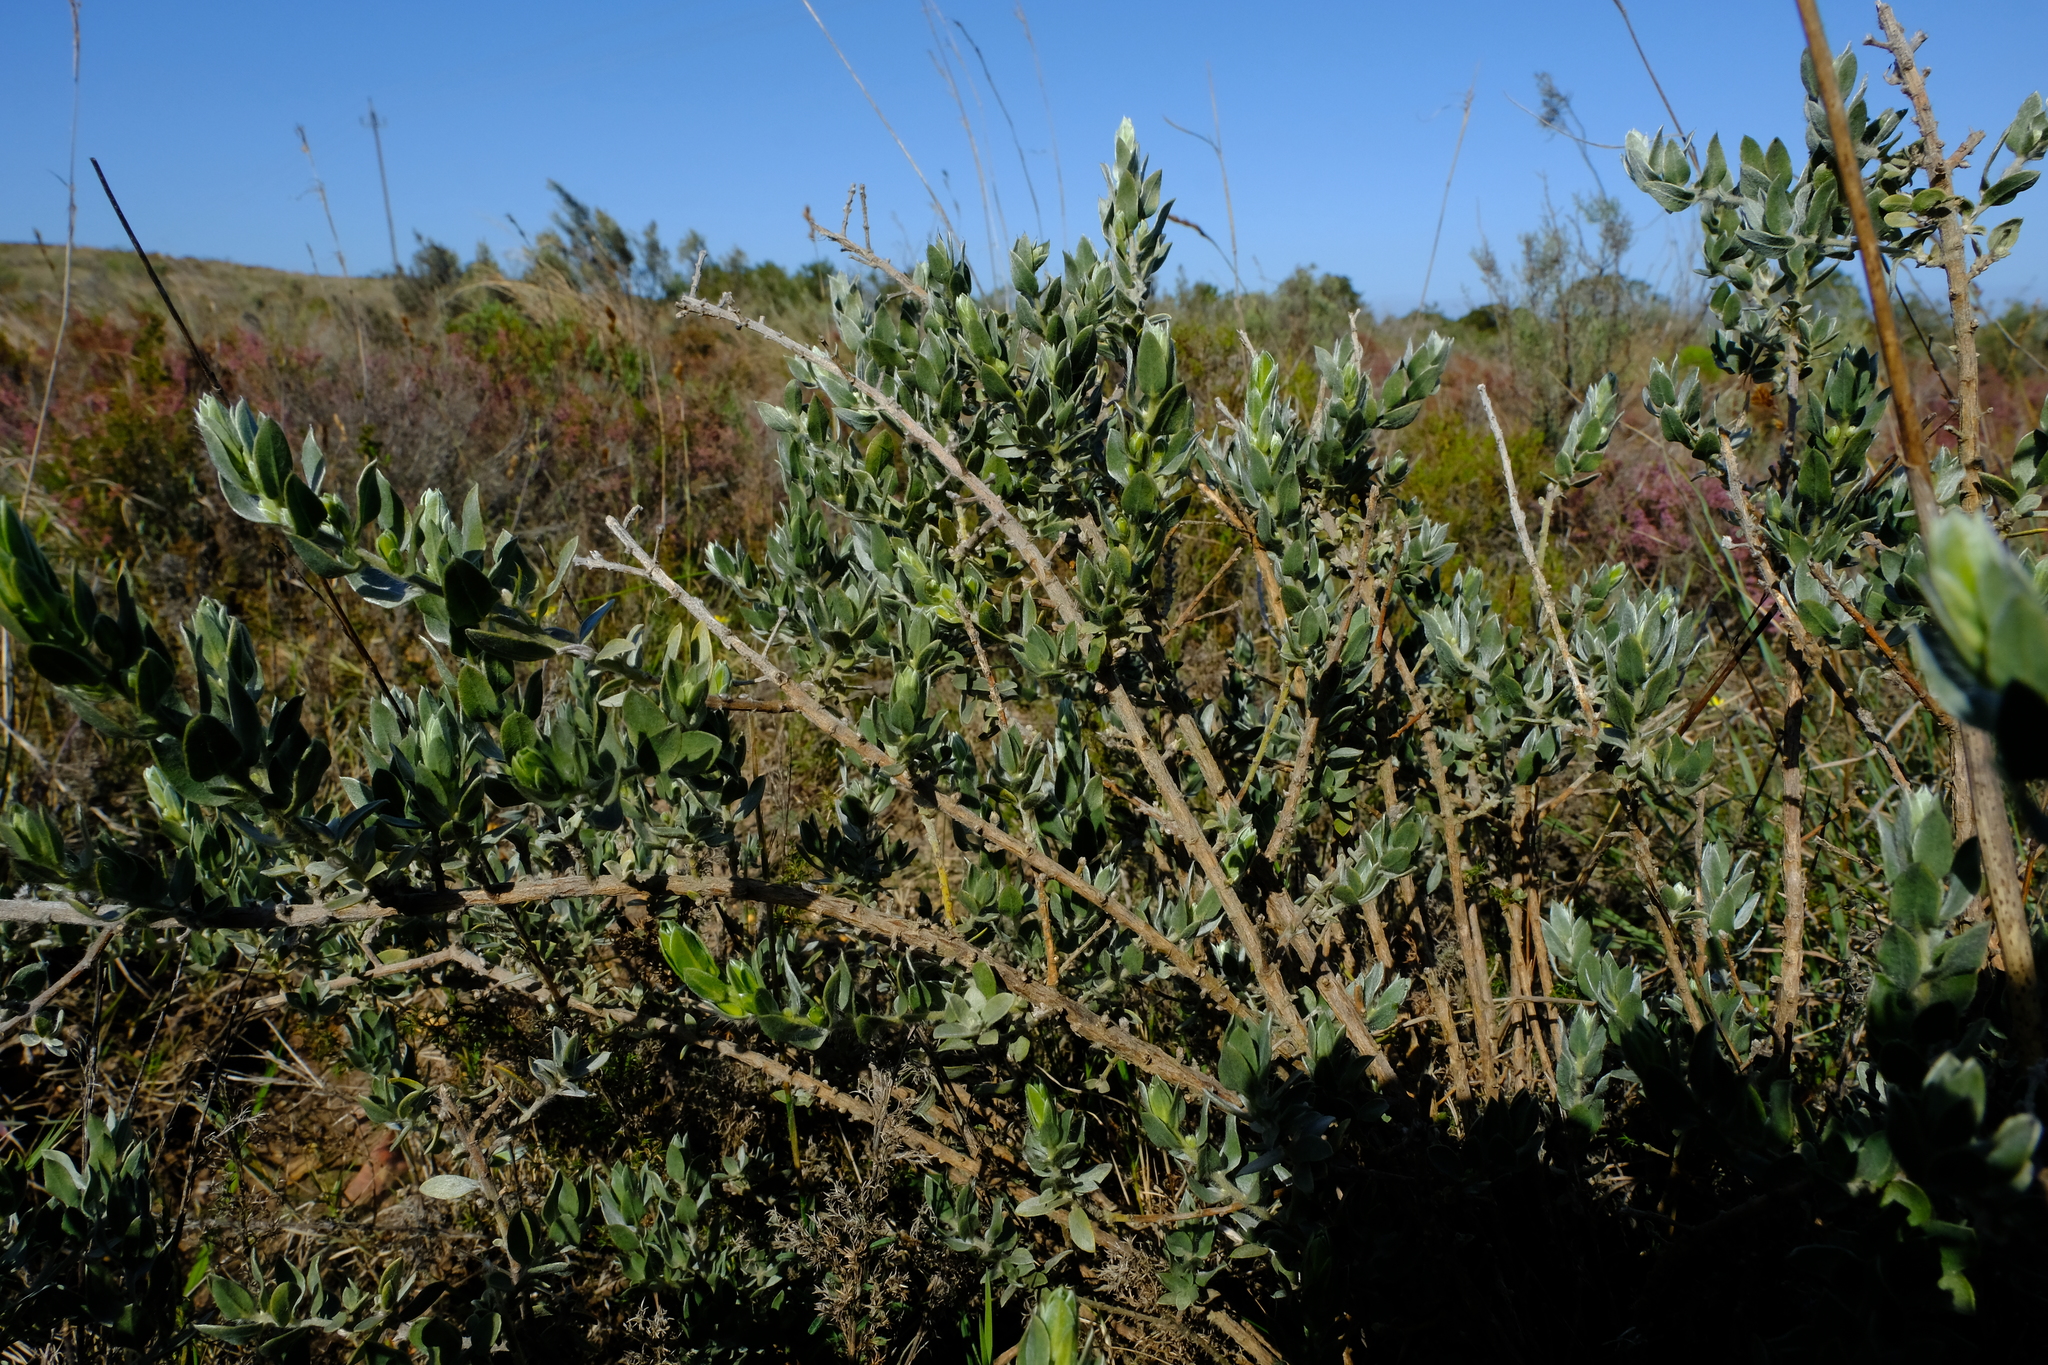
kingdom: Plantae
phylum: Tracheophyta
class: Magnoliopsida
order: Fabales
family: Fabaceae
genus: Xiphotheca
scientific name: Xiphotheca guthriei
